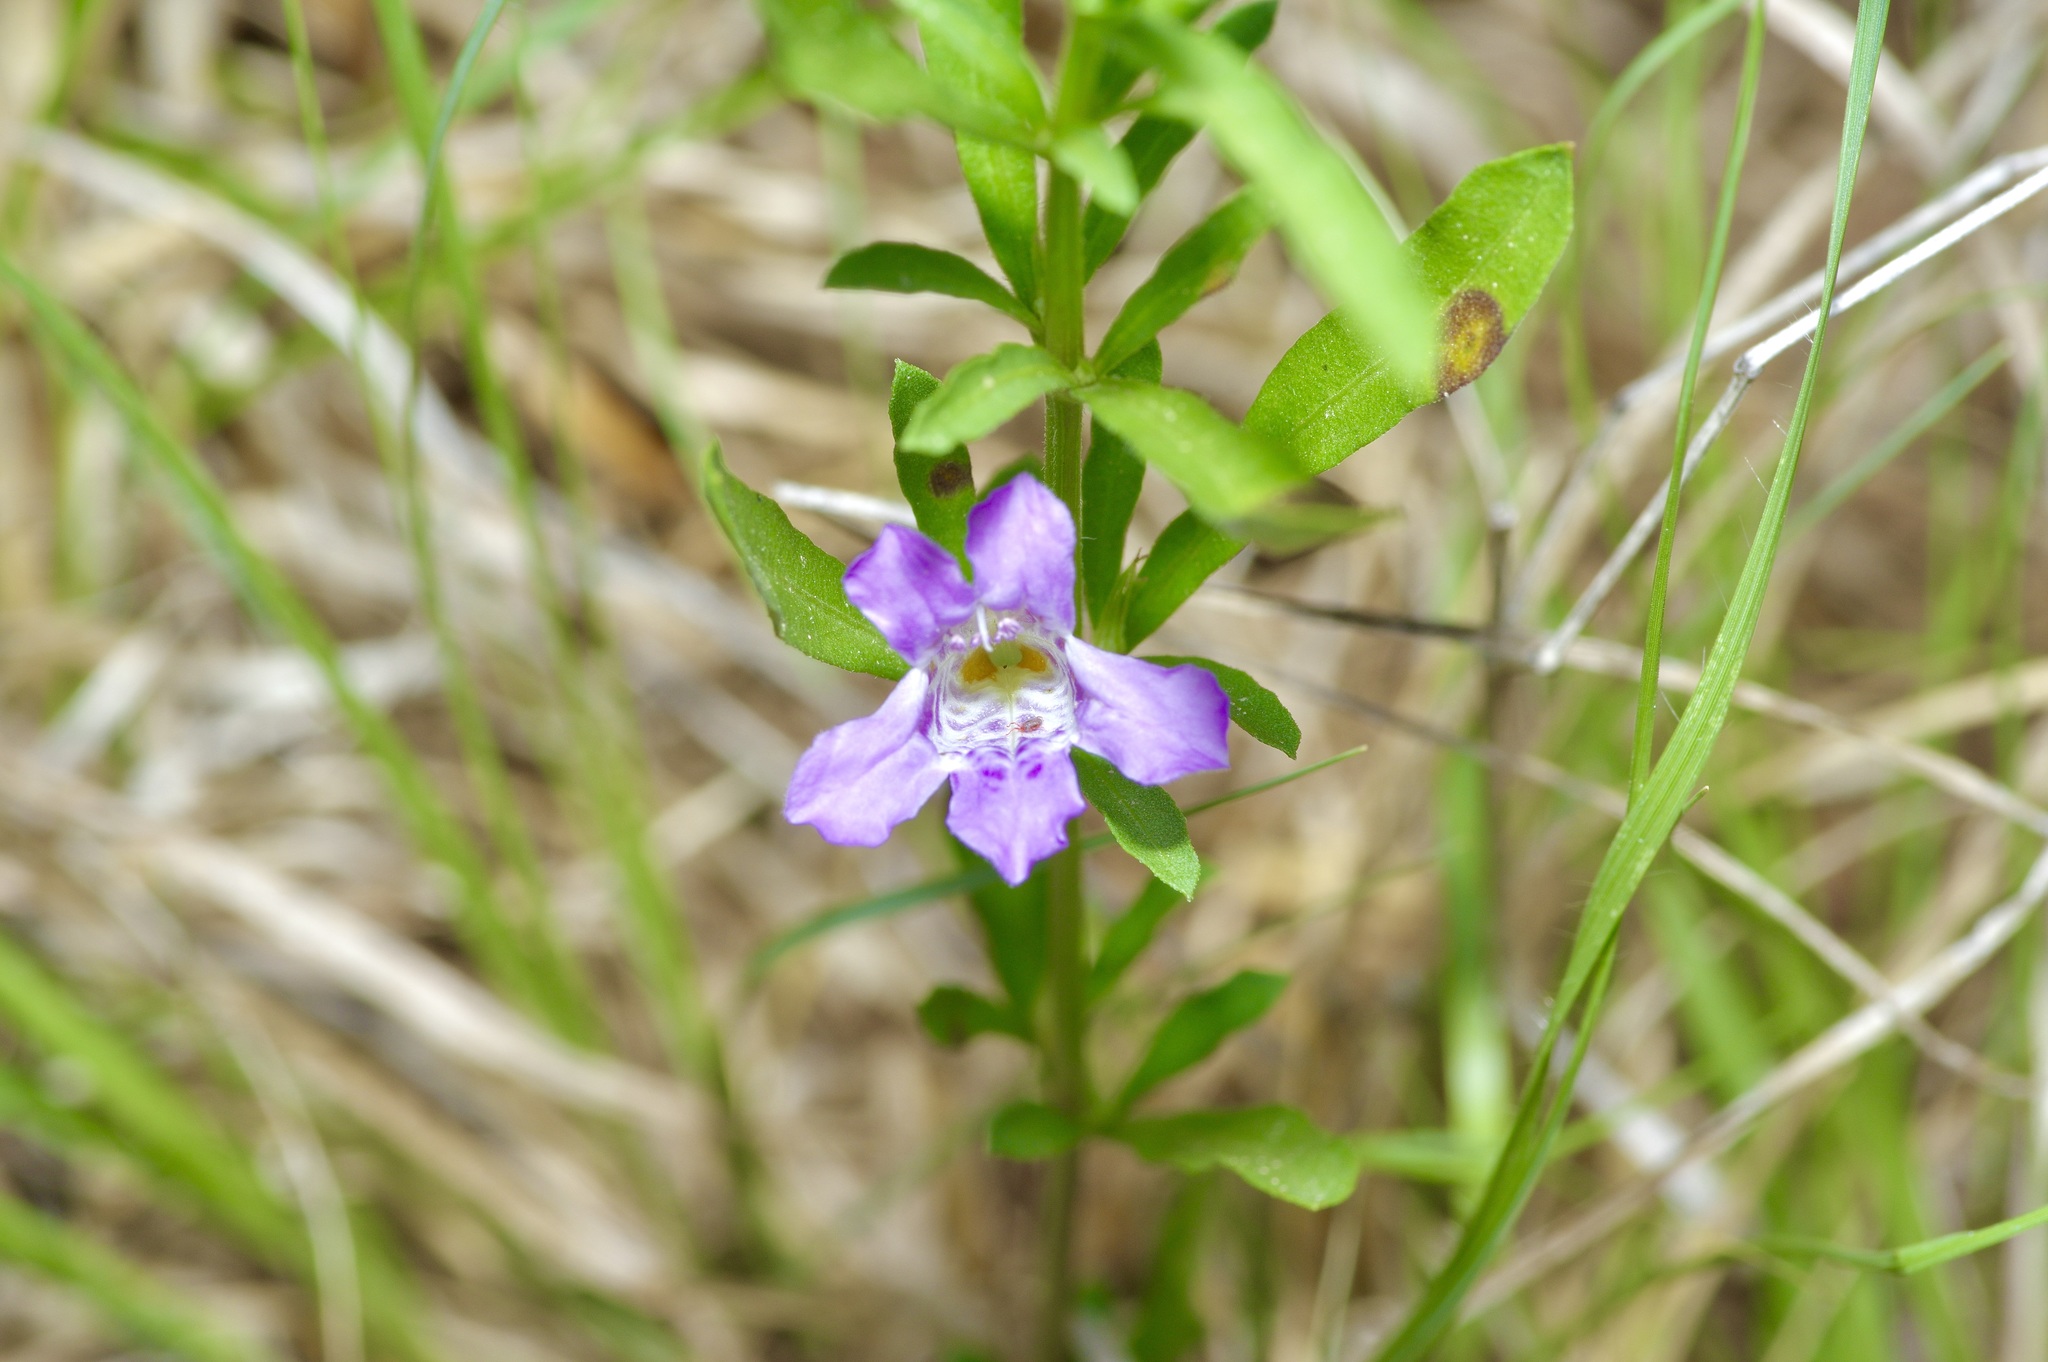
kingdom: Plantae
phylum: Tracheophyta
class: Magnoliopsida
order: Lamiales
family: Acanthaceae
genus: Dyschoriste
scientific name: Dyschoriste linearis
